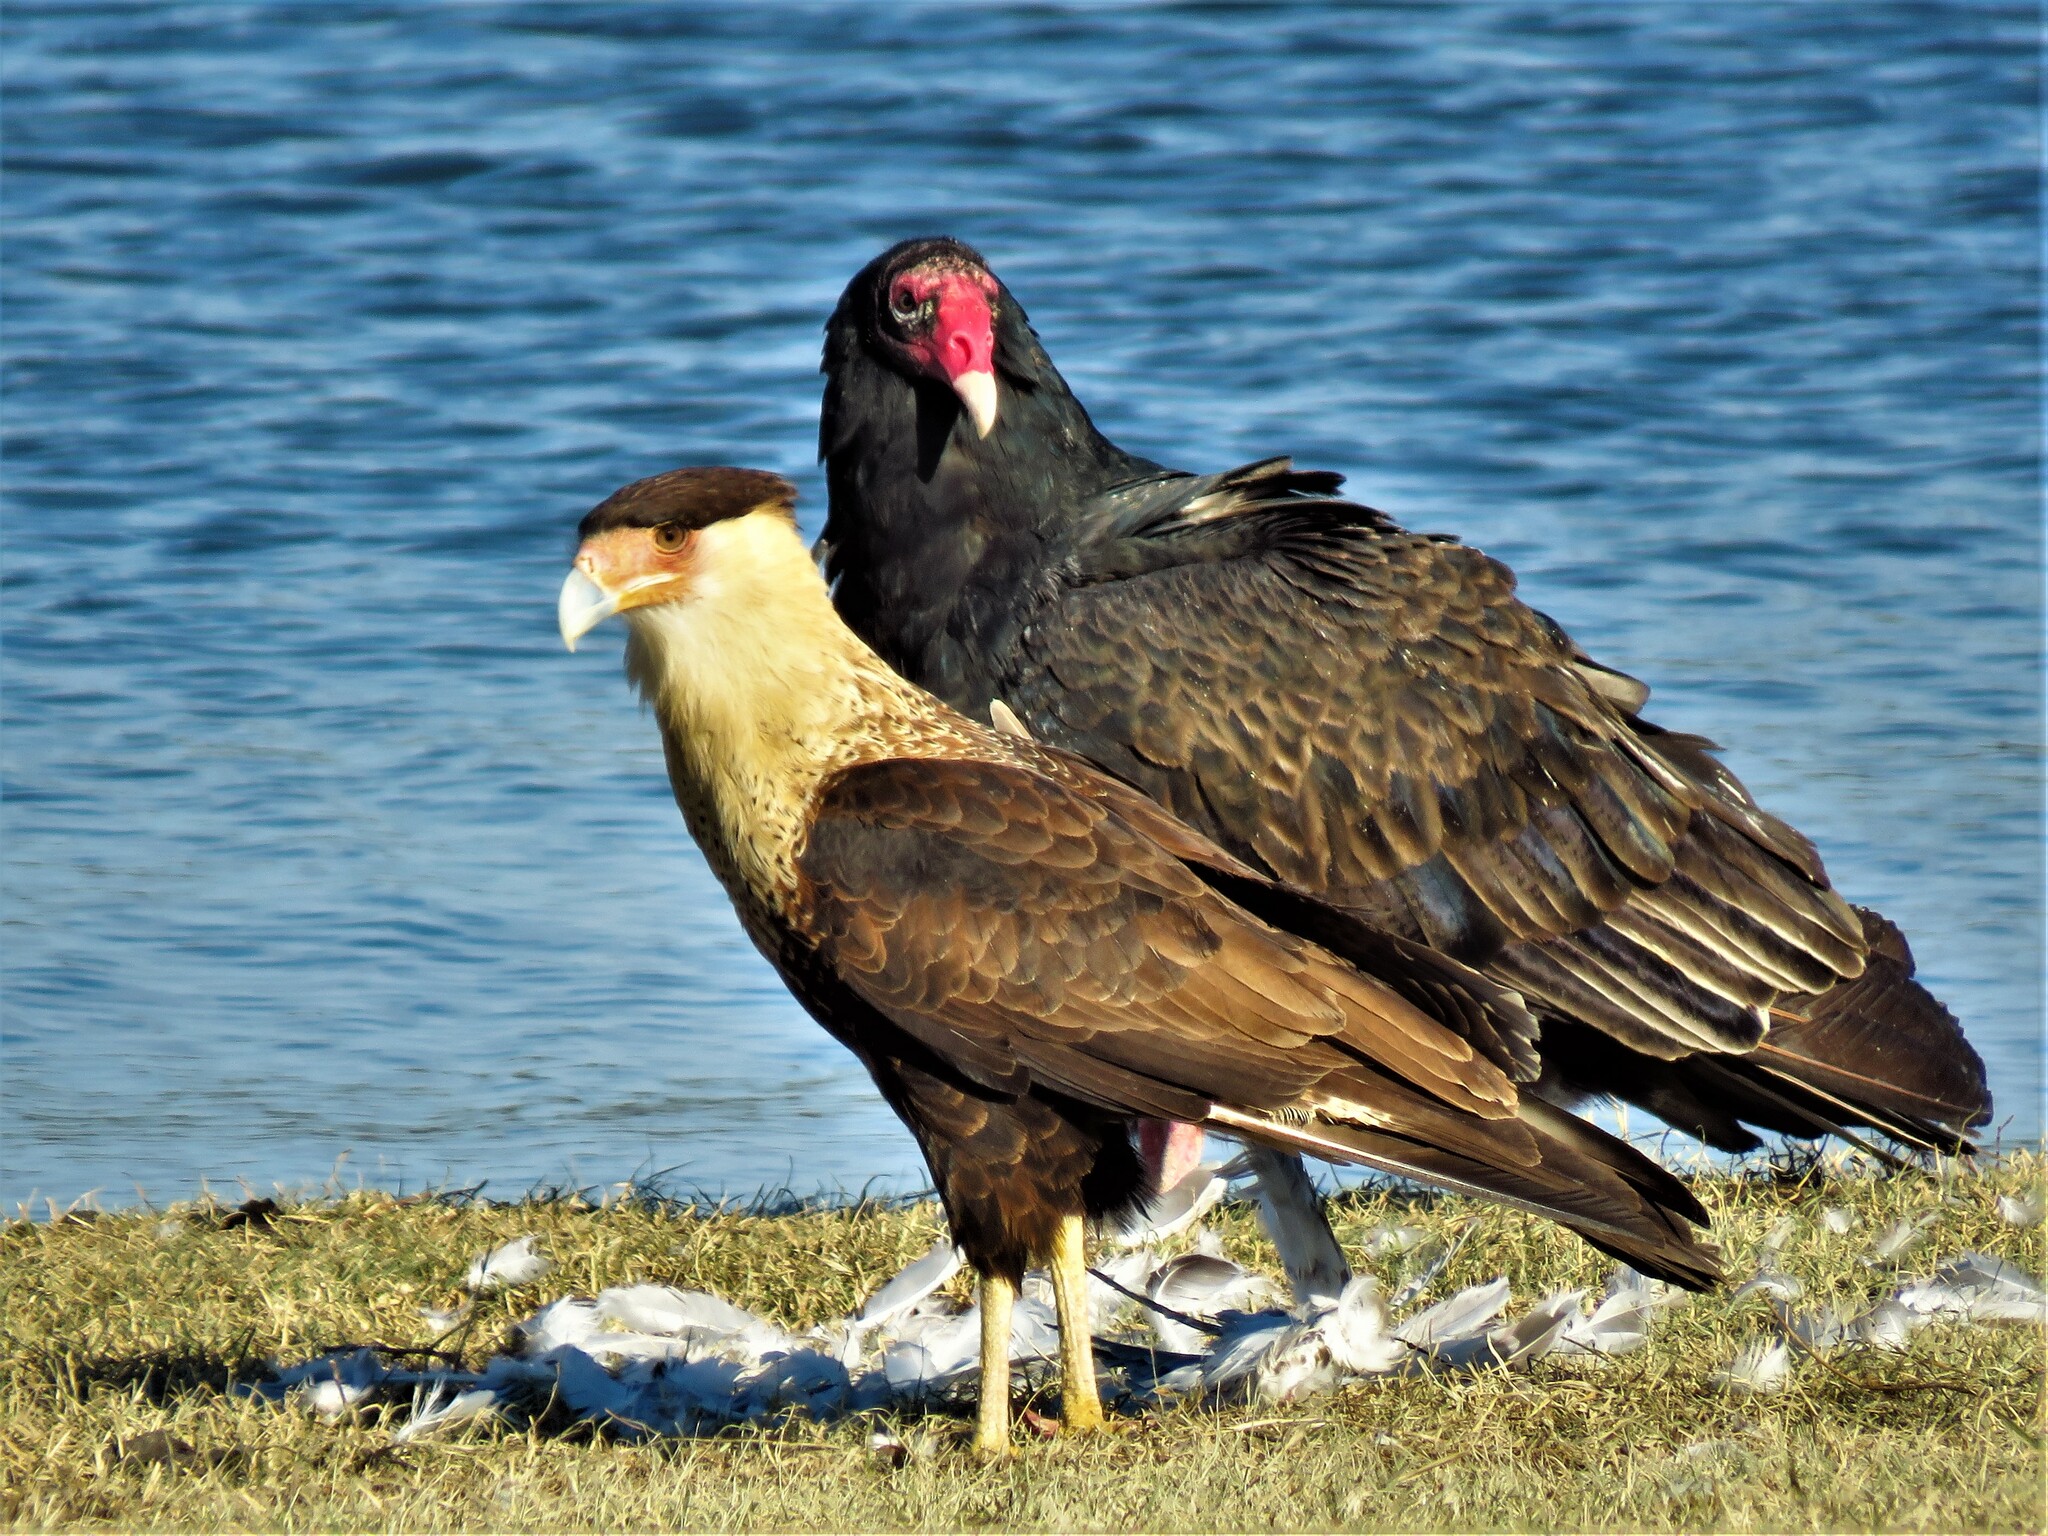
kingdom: Animalia
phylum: Chordata
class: Aves
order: Falconiformes
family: Falconidae
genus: Caracara
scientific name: Caracara plancus
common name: Southern caracara
